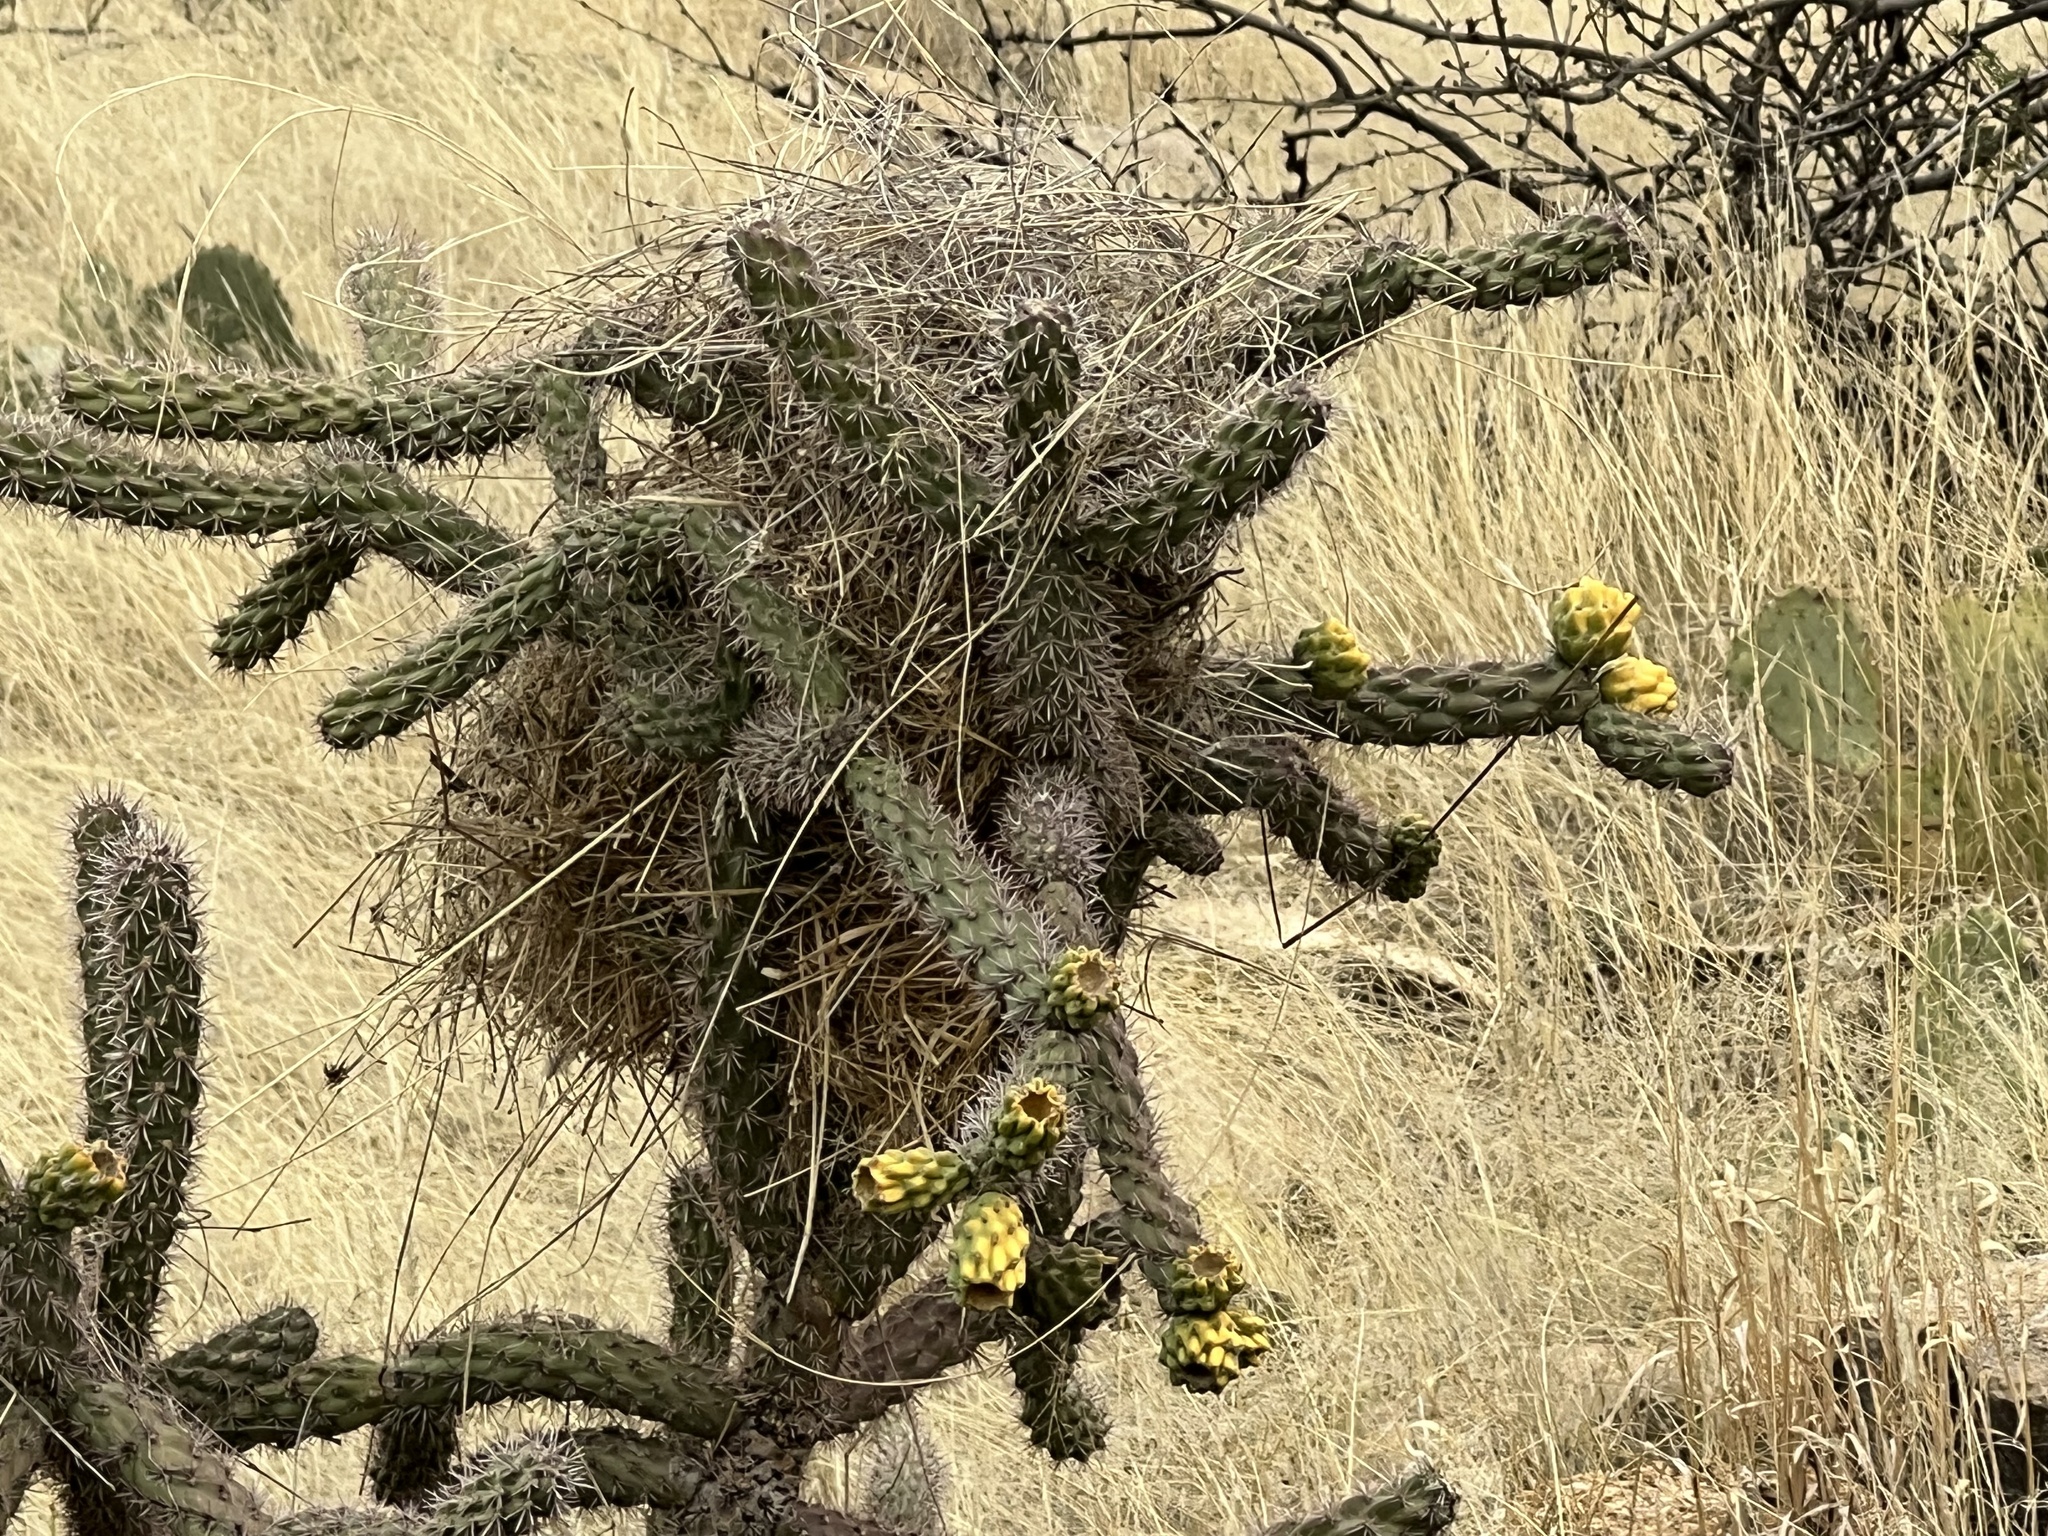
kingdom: Plantae
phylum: Tracheophyta
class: Magnoliopsida
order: Caryophyllales
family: Cactaceae
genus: Cylindropuntia
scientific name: Cylindropuntia imbricata
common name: Candelabrum cactus
